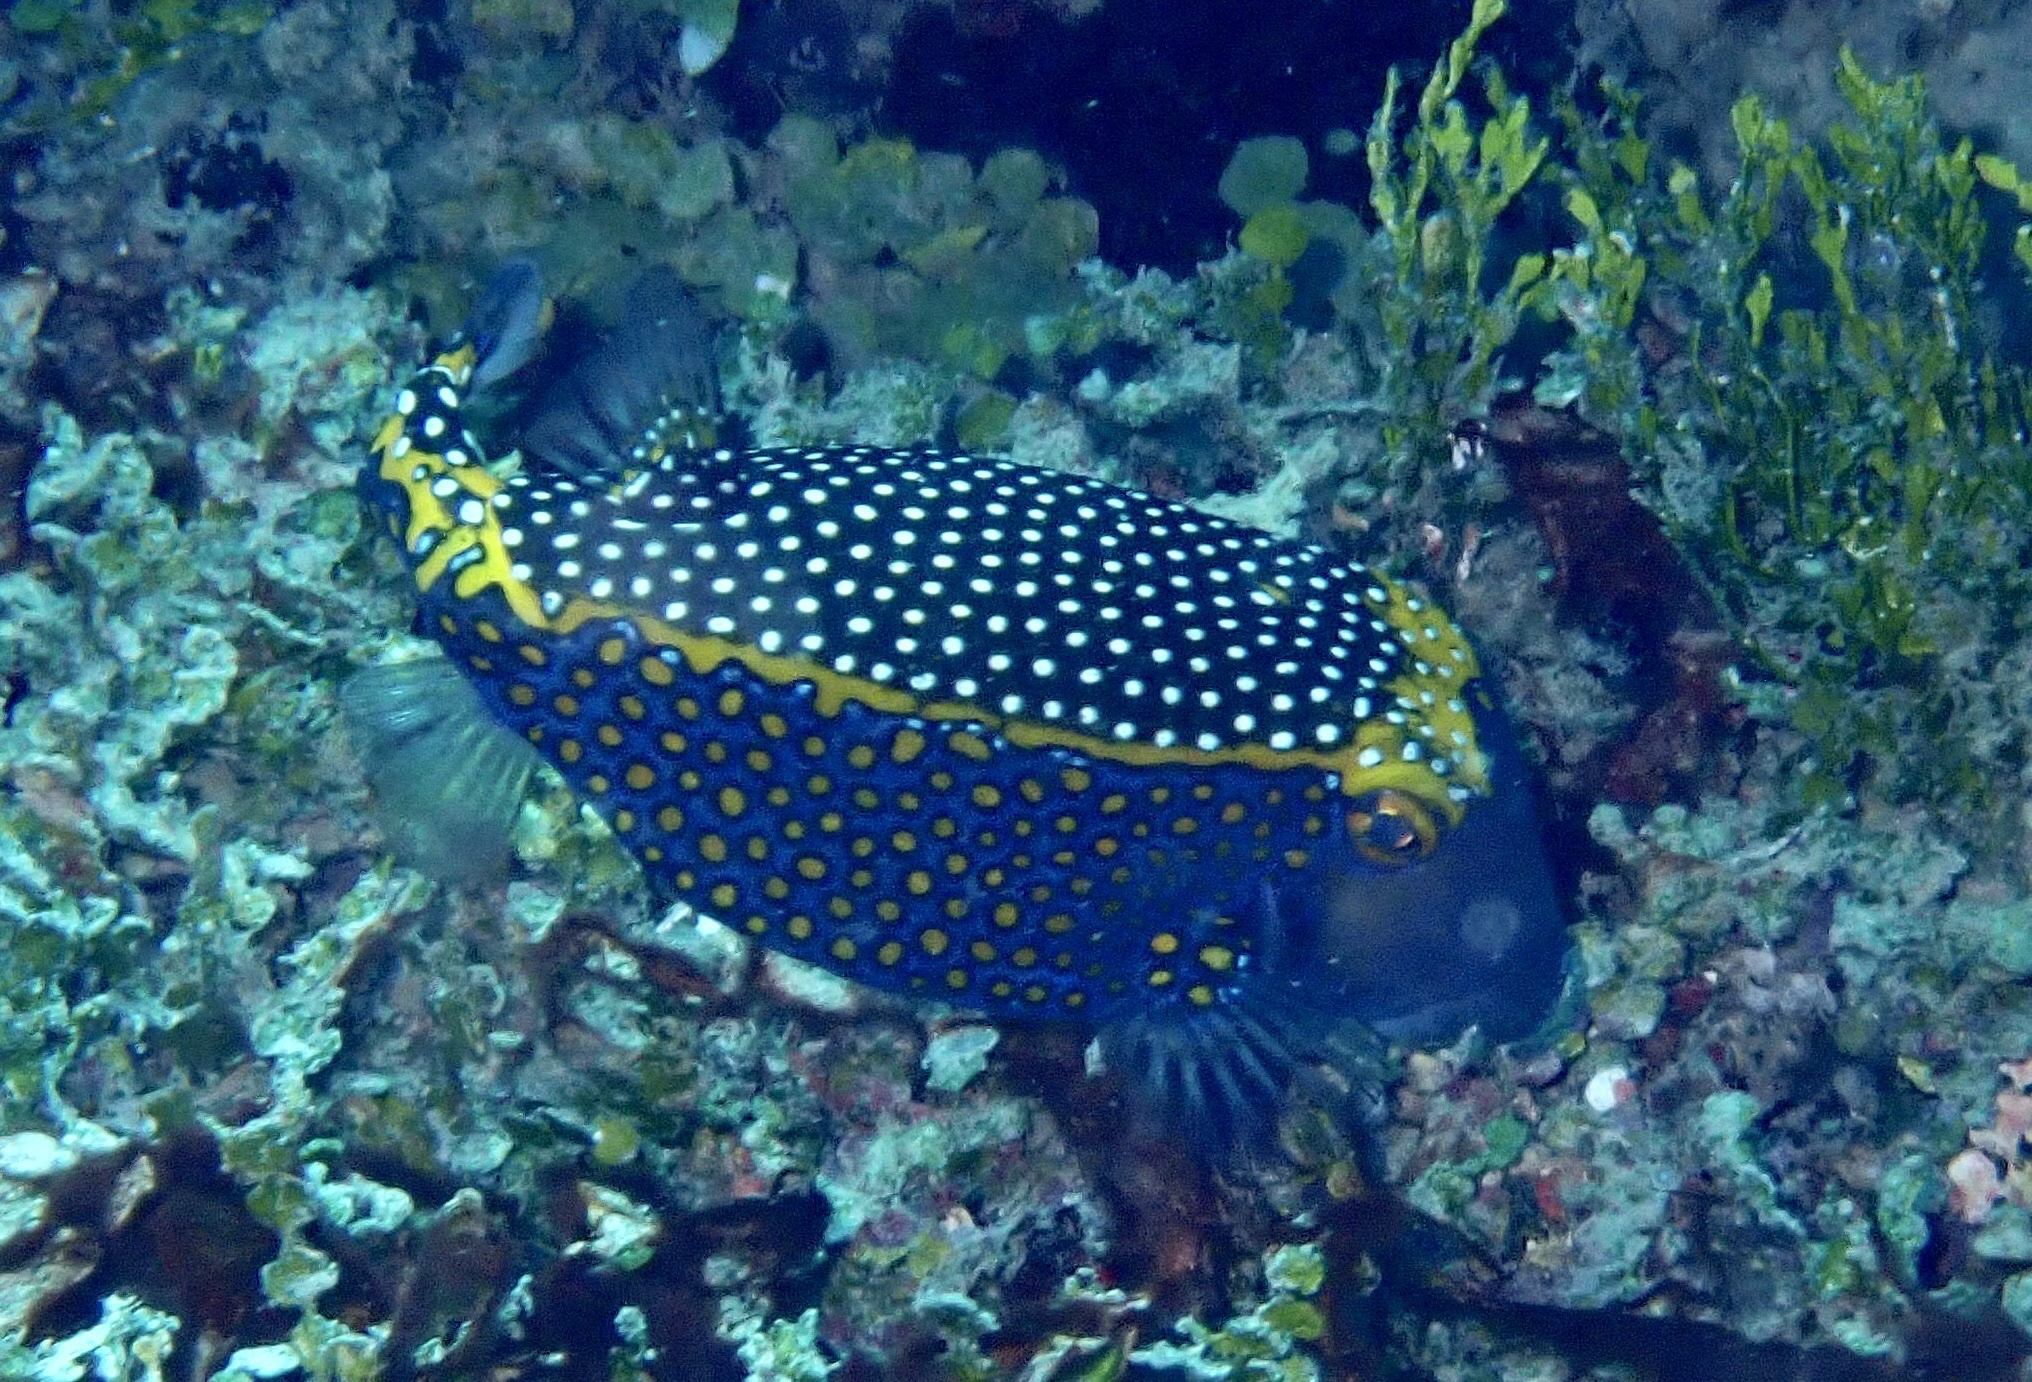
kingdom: Animalia
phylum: Chordata
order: Tetraodontiformes
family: Ostraciidae
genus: Ostracion
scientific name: Ostracion meleagris
